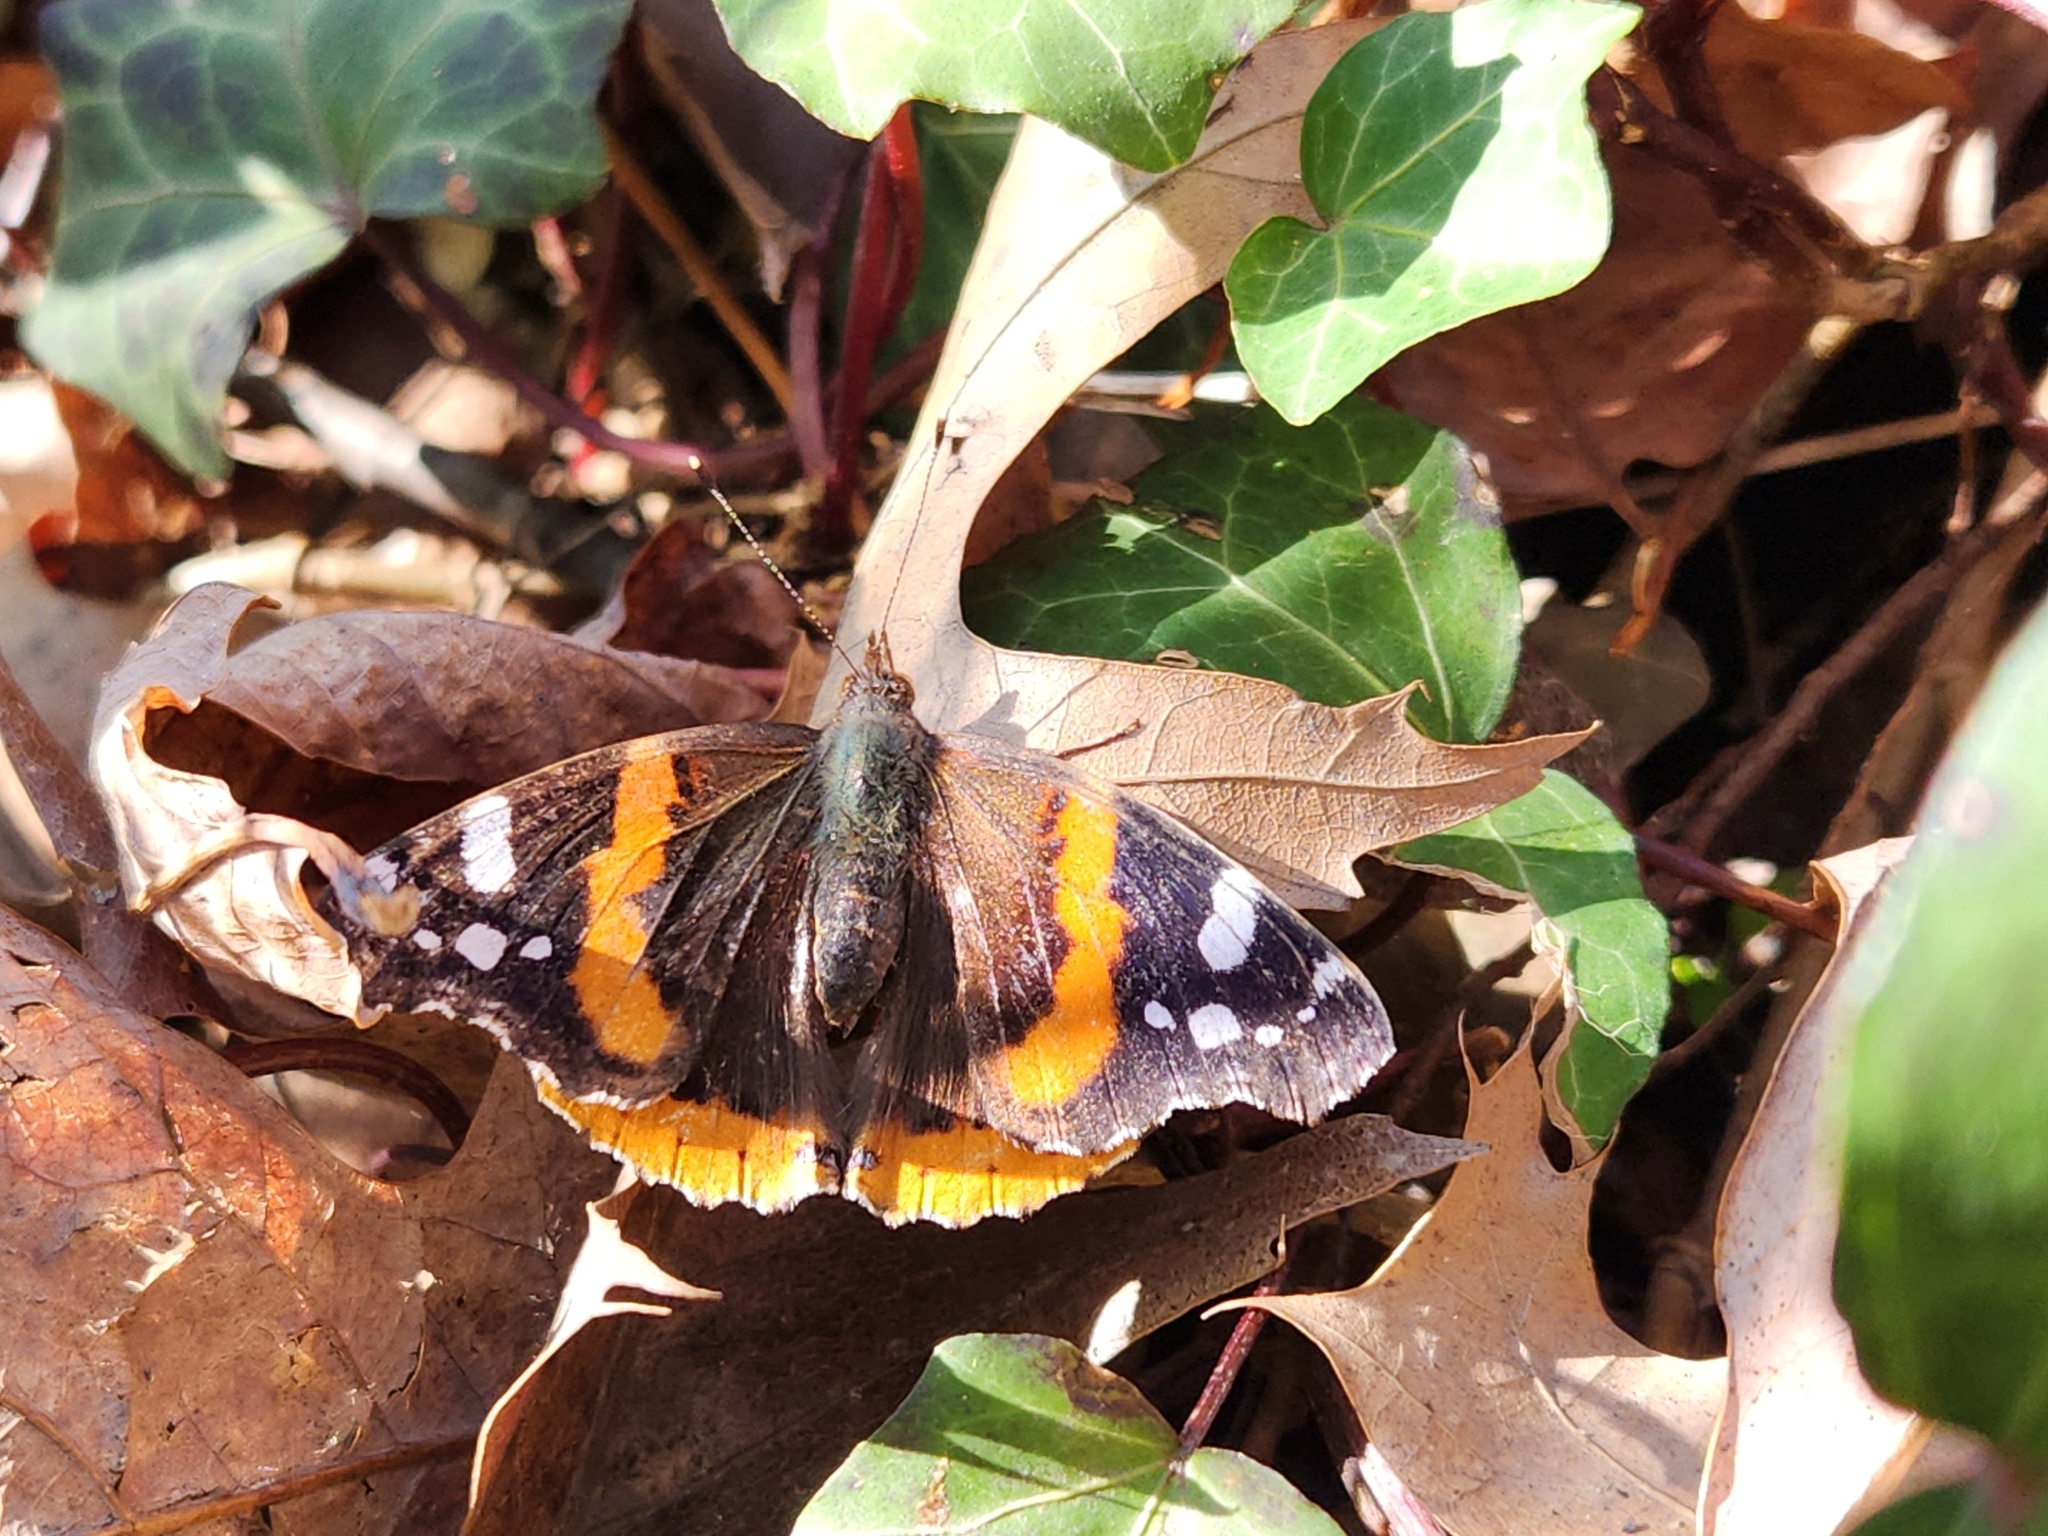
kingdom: Animalia
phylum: Arthropoda
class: Insecta
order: Lepidoptera
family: Nymphalidae
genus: Vanessa
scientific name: Vanessa atalanta
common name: Red admiral
